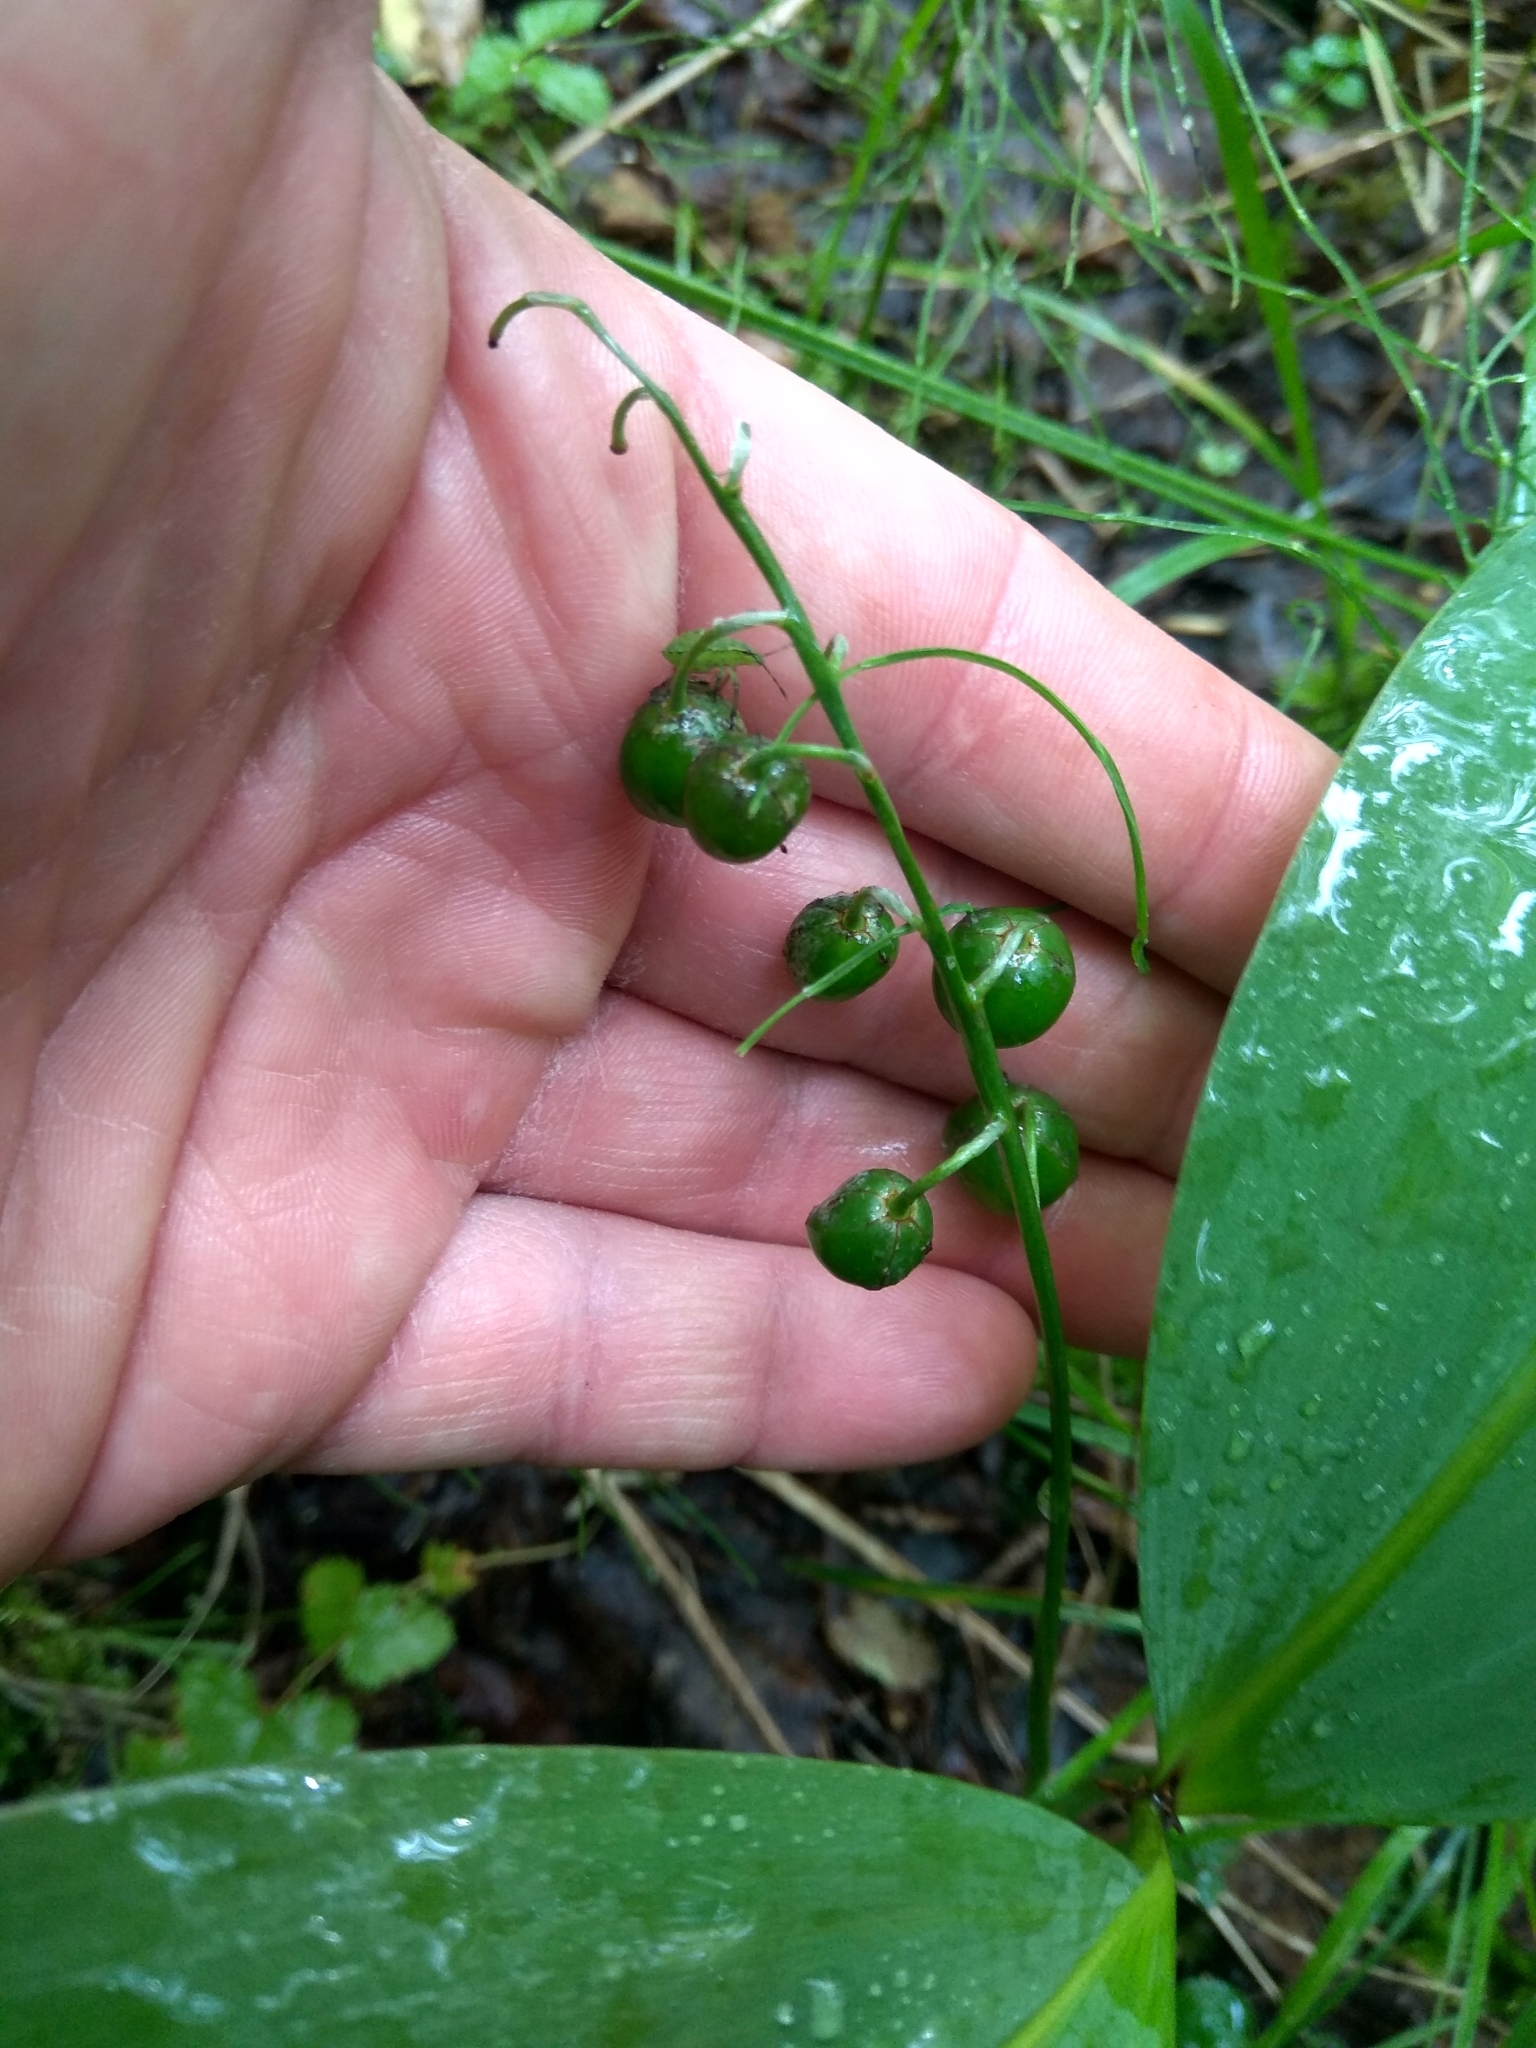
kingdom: Plantae
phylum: Tracheophyta
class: Liliopsida
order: Asparagales
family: Asparagaceae
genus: Convallaria
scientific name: Convallaria majalis
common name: Lily-of-the-valley
